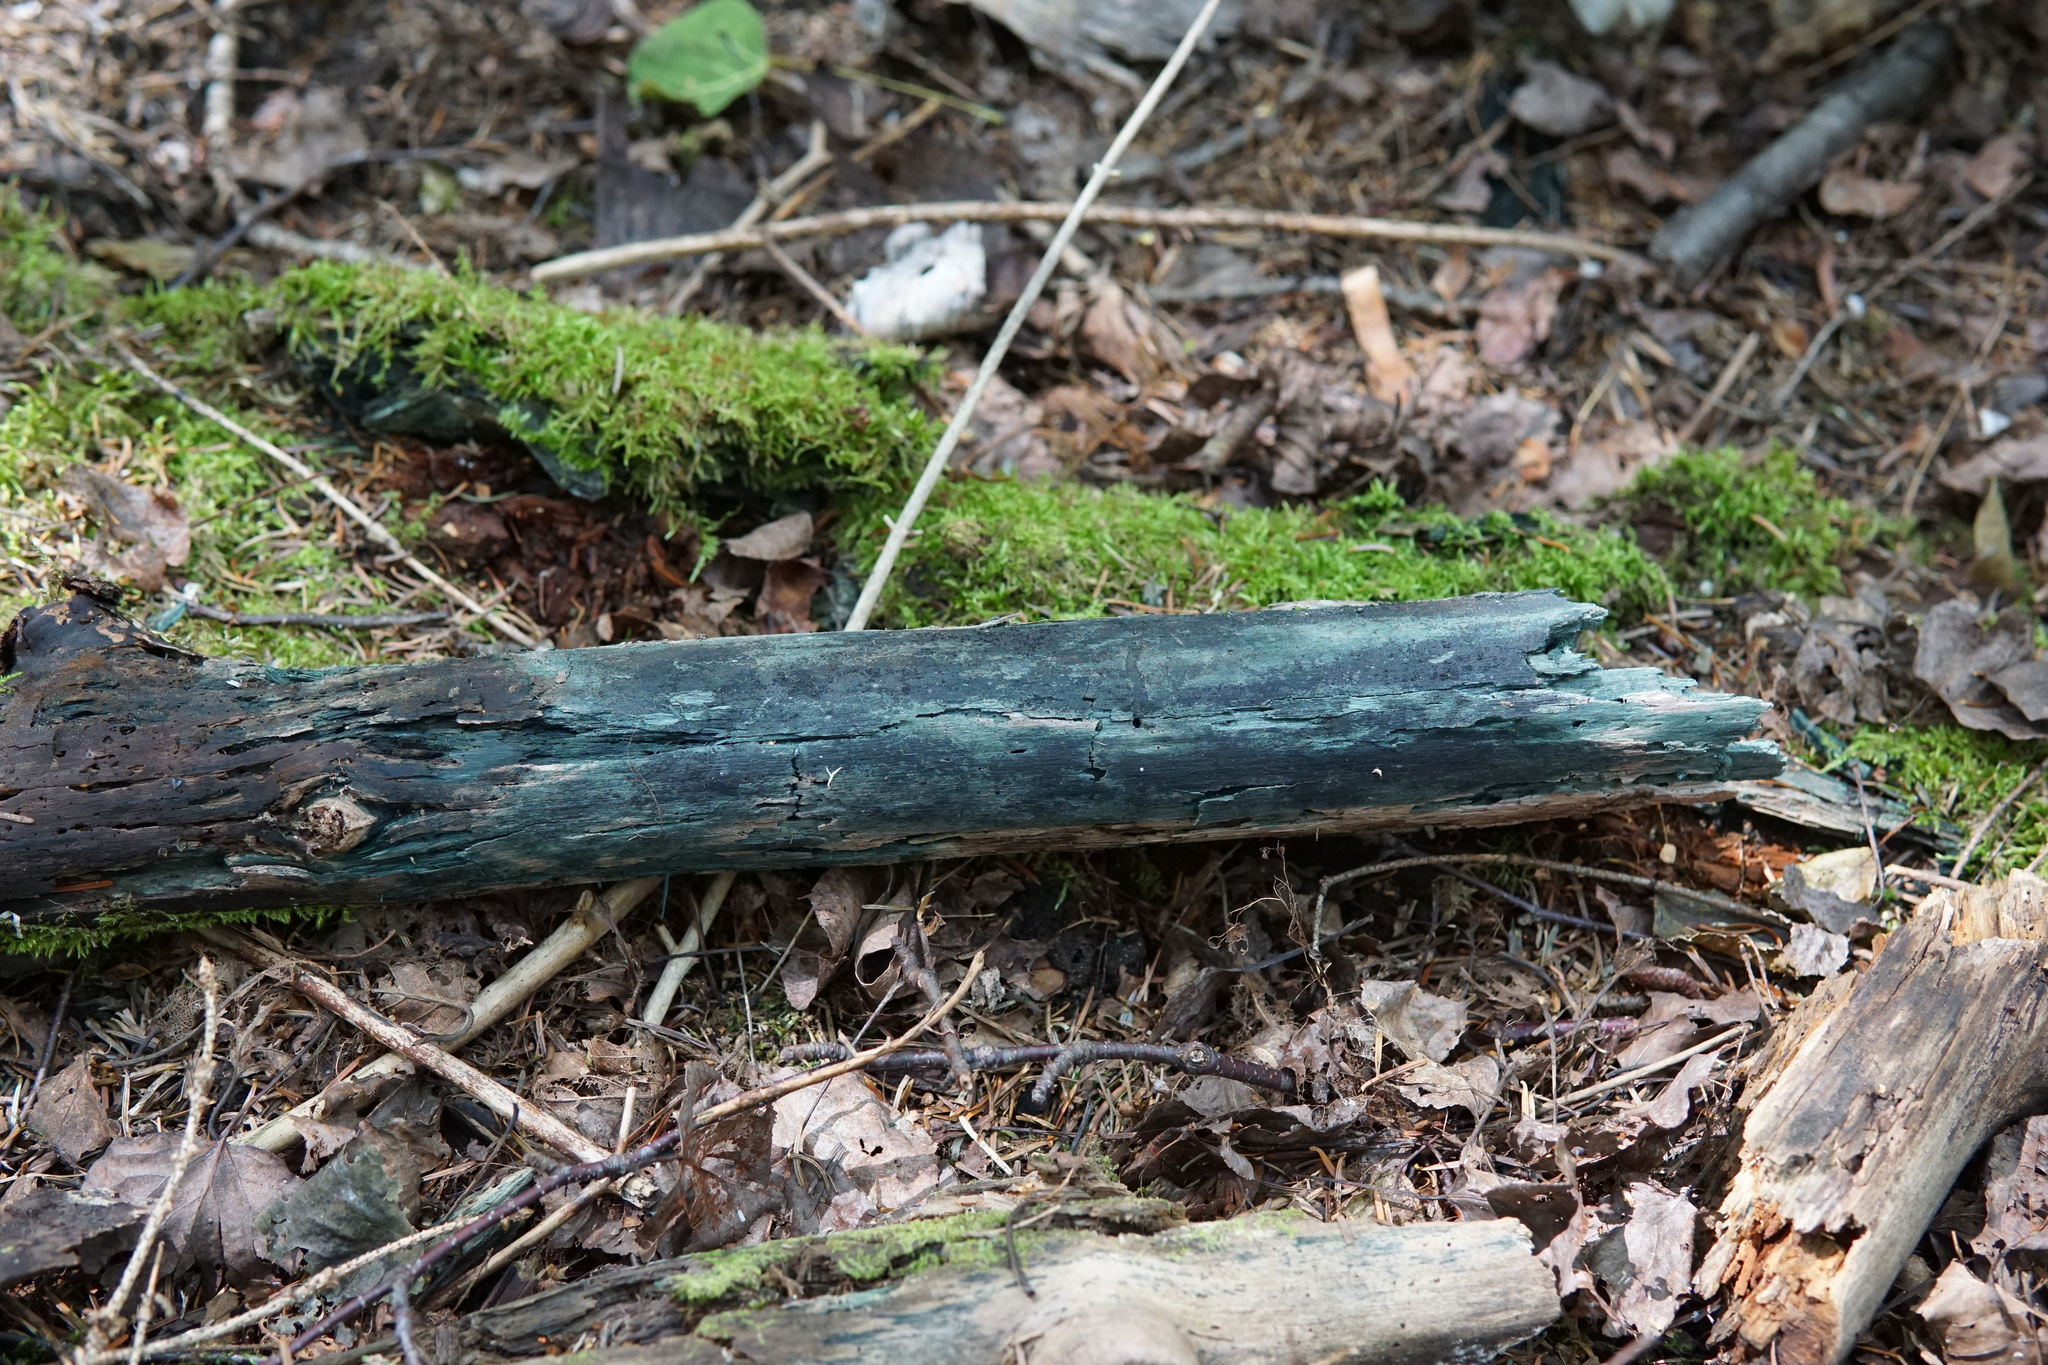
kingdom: Fungi
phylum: Ascomycota
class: Leotiomycetes
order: Helotiales
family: Chlorociboriaceae
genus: Chlorociboria
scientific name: Chlorociboria
